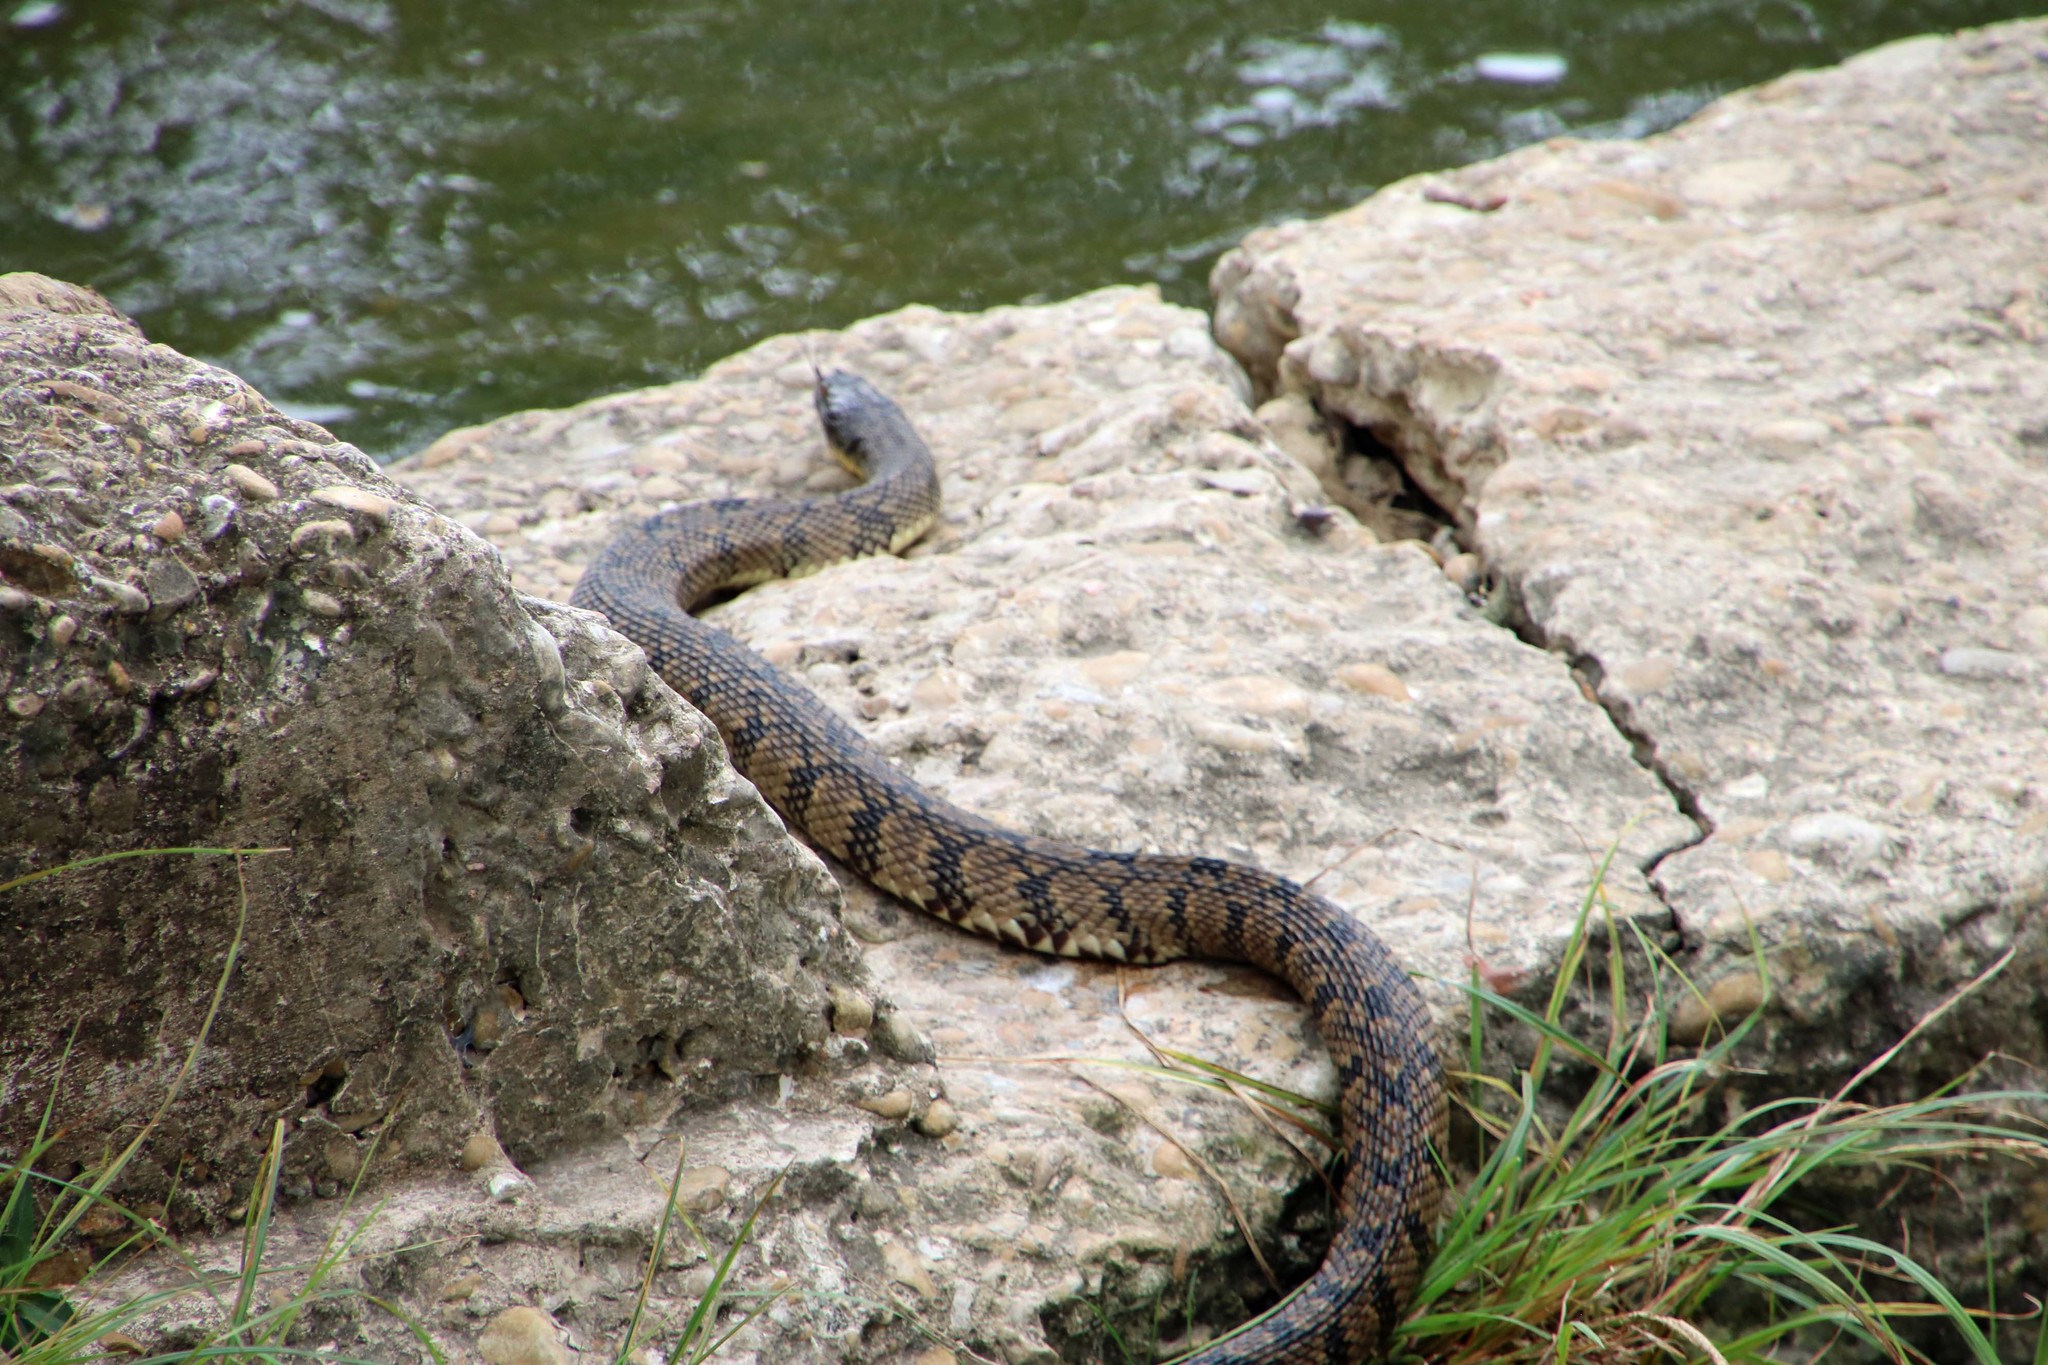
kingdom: Animalia
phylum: Chordata
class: Squamata
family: Colubridae
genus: Nerodia
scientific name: Nerodia rhombifer
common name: Diamondback water snake
